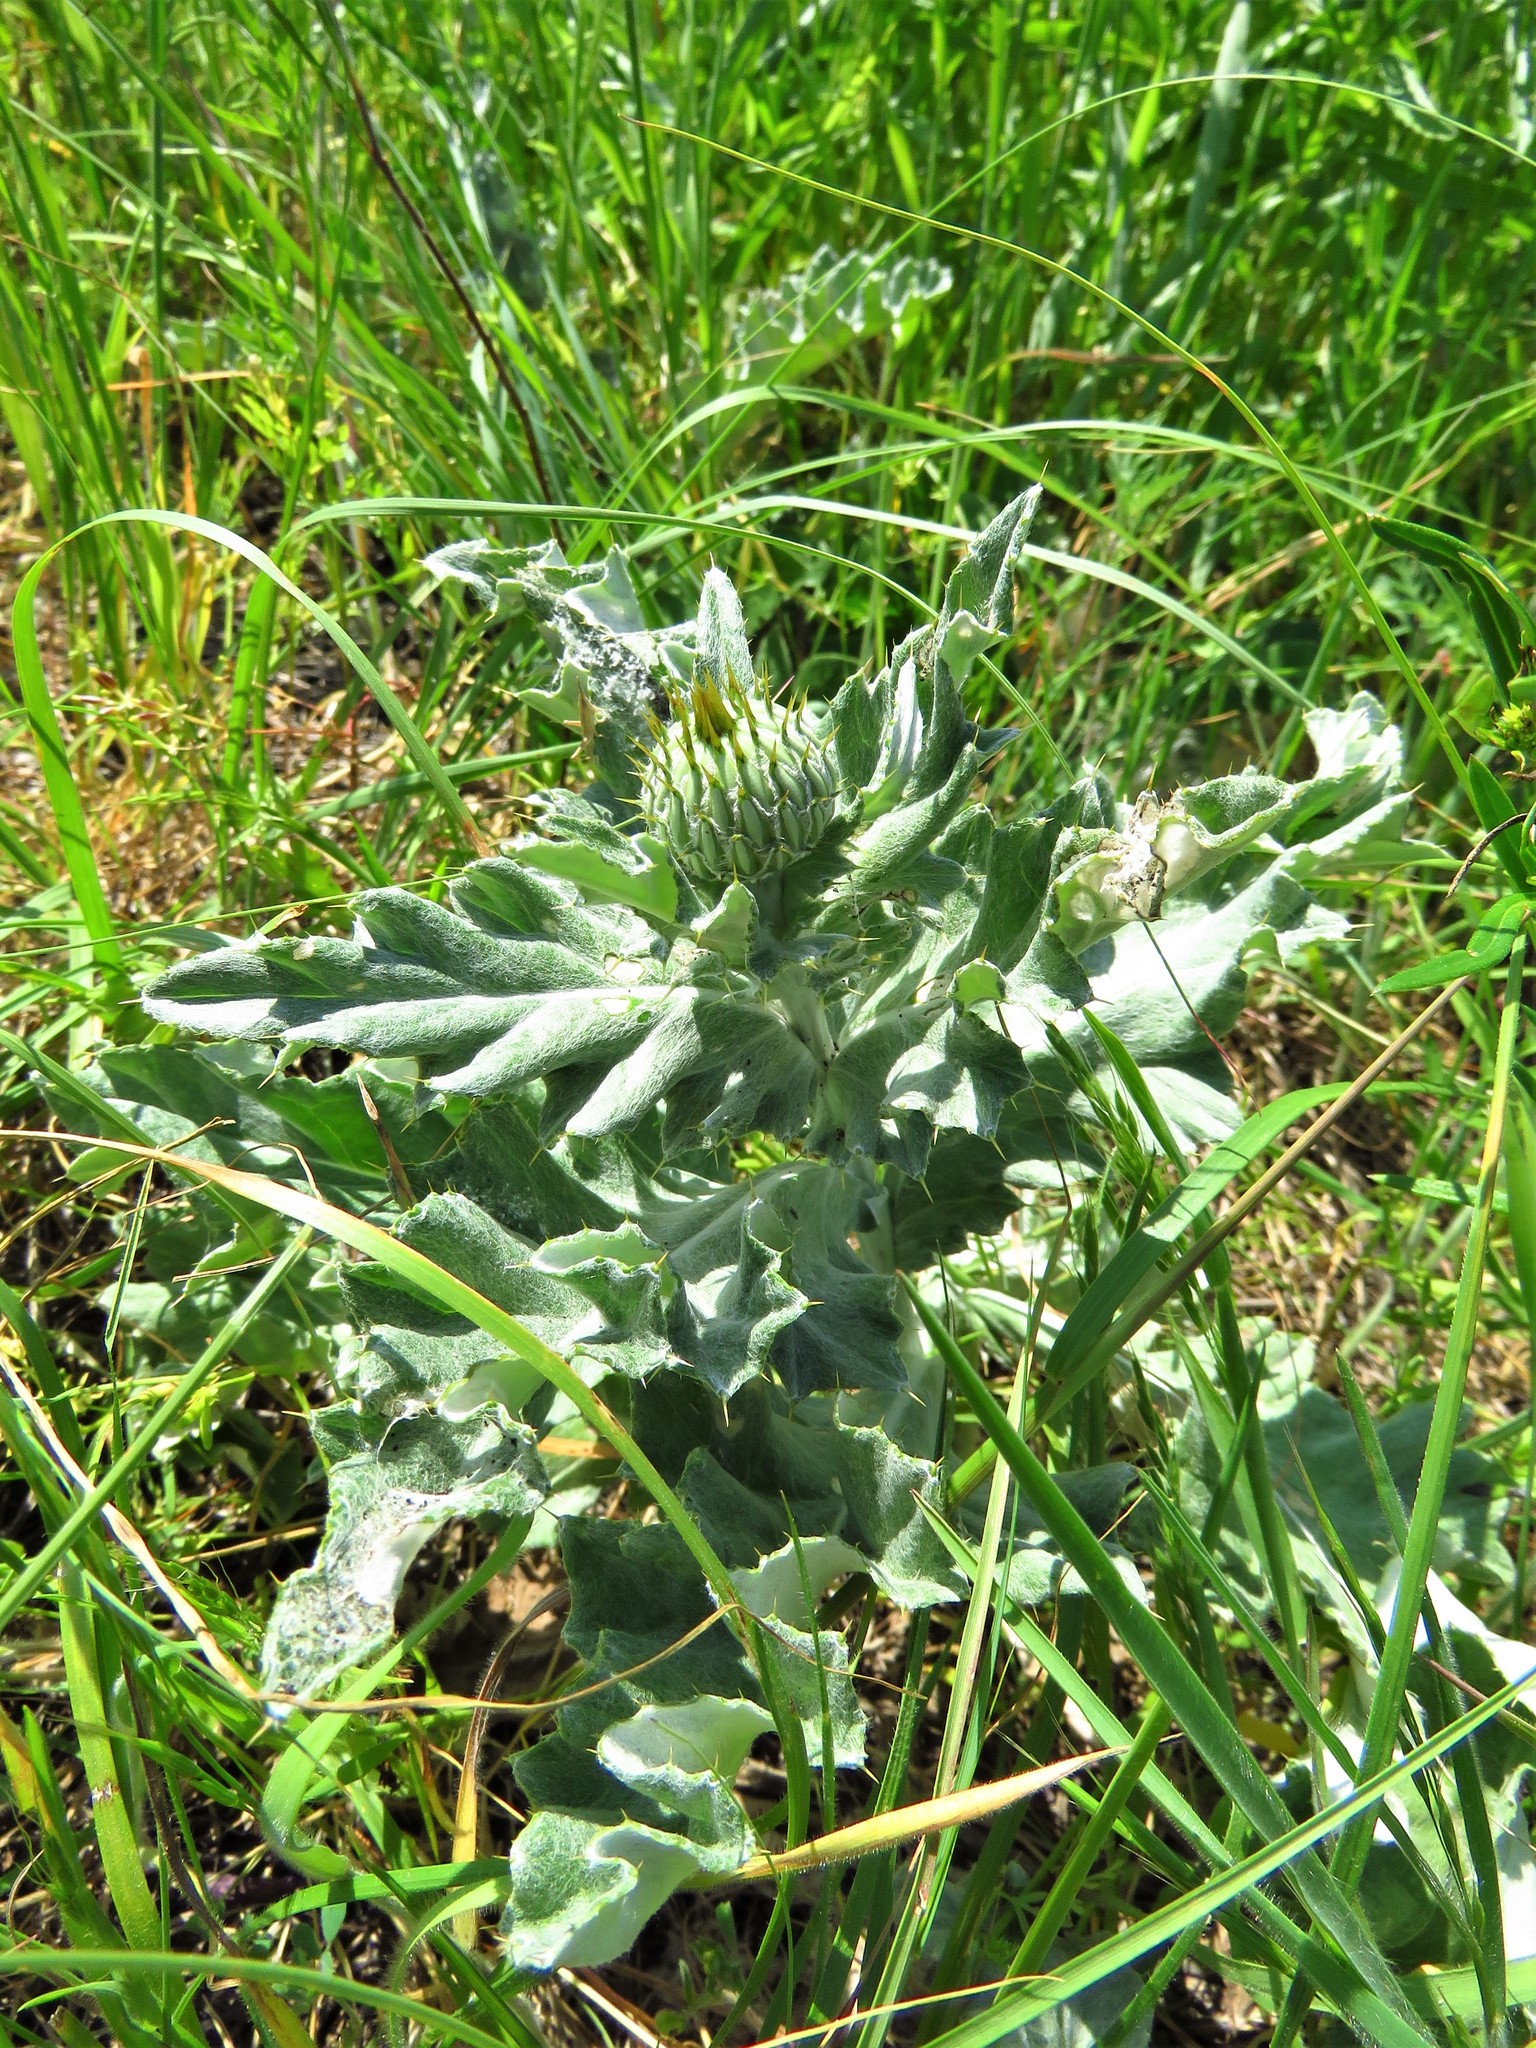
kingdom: Plantae
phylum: Tracheophyta
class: Magnoliopsida
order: Asterales
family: Asteraceae
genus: Cirsium
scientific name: Cirsium undulatum
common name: Pasture thistle
